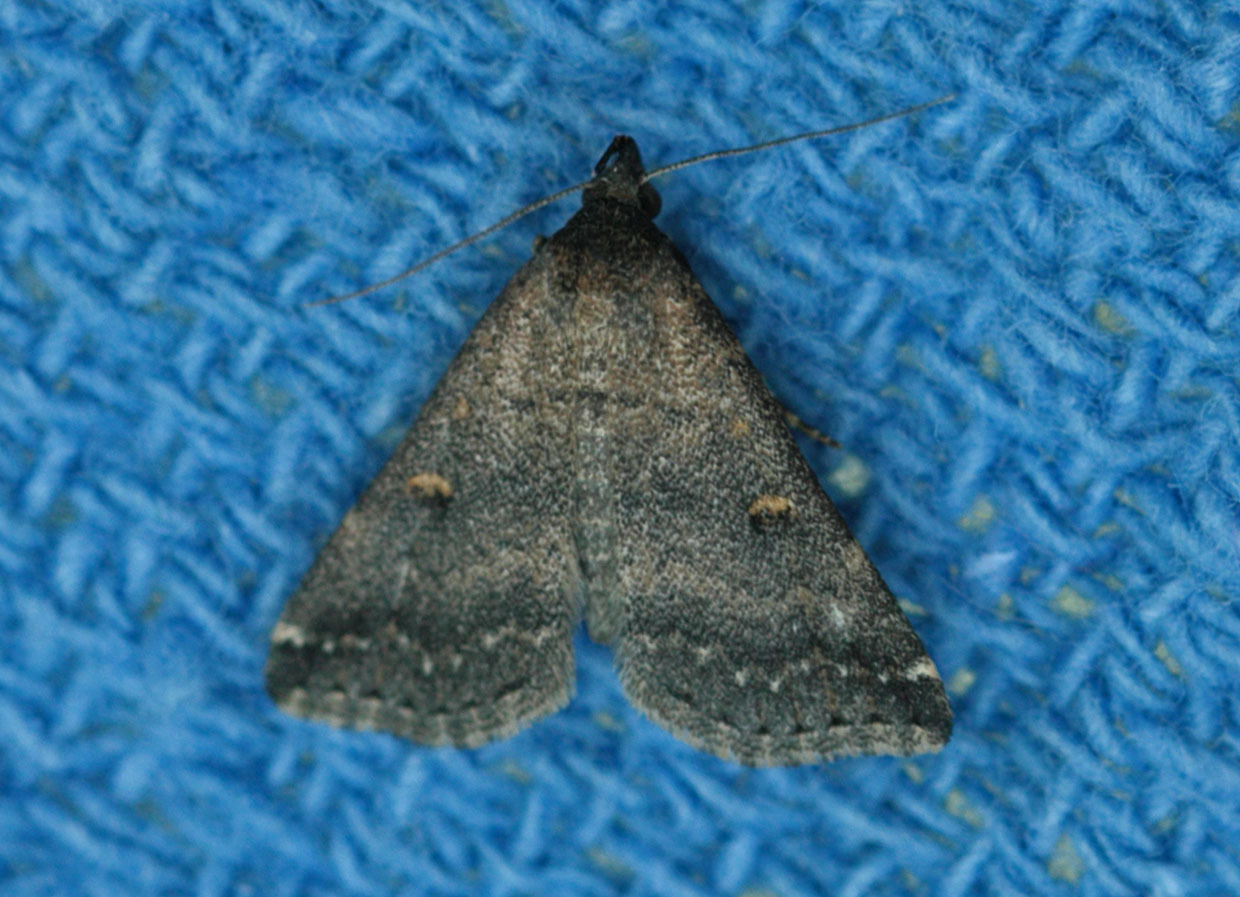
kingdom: Animalia
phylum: Arthropoda
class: Insecta
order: Lepidoptera
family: Erebidae
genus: Tetanolita
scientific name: Tetanolita mynesalis
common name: Smoky tetanolita moth
